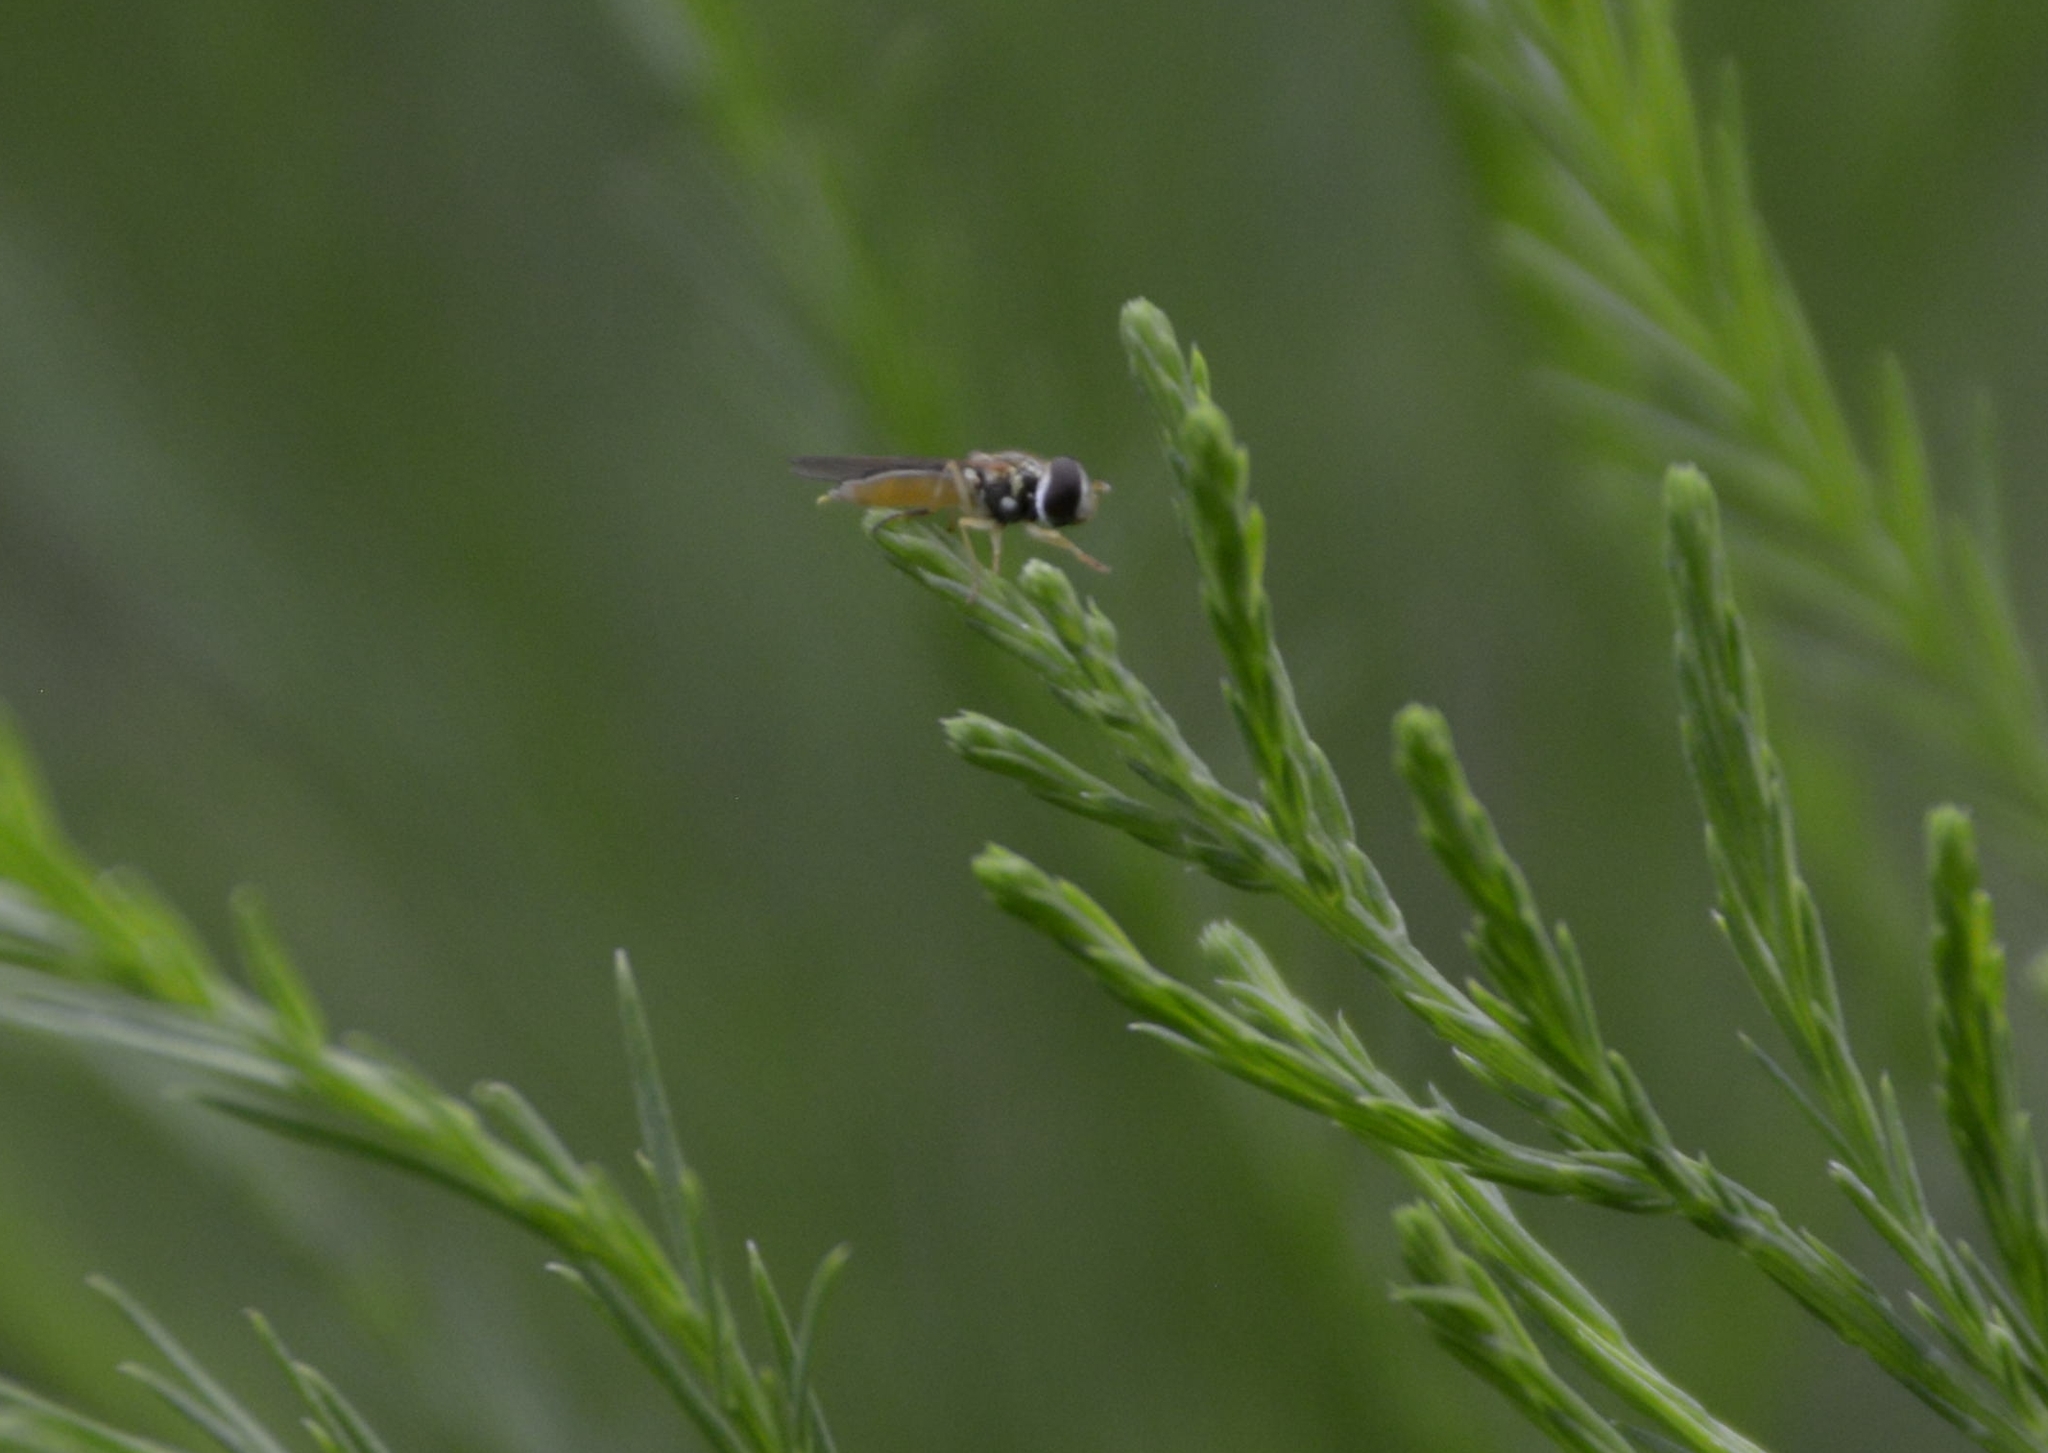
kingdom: Animalia
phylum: Arthropoda
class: Insecta
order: Diptera
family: Syrphidae
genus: Allograpta
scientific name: Allograpta exotica
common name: Syrphid fly
